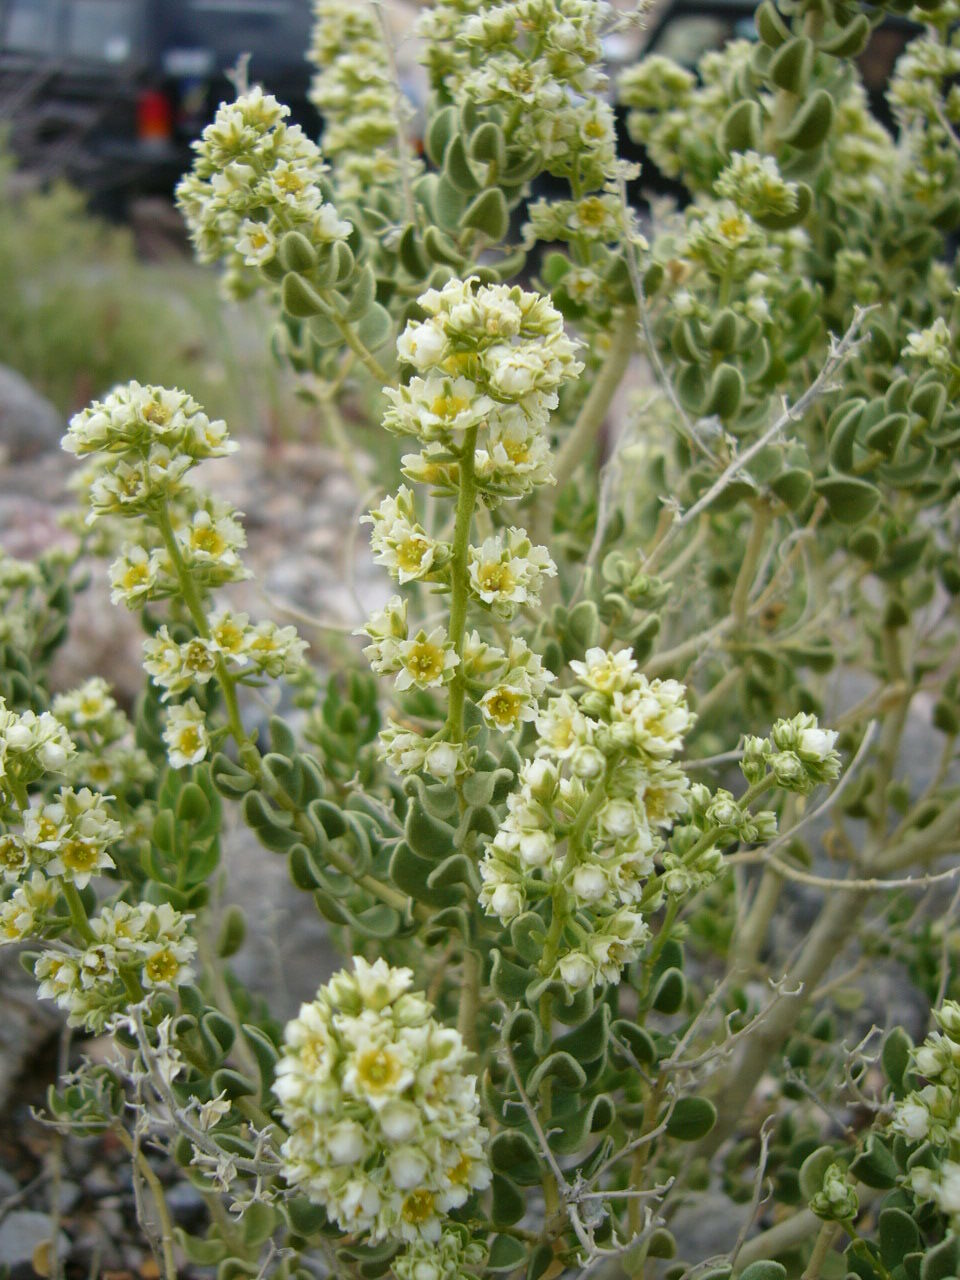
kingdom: Plantae
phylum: Tracheophyta
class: Magnoliopsida
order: Celastrales
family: Celastraceae
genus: Mortonia
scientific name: Mortonia utahensis
